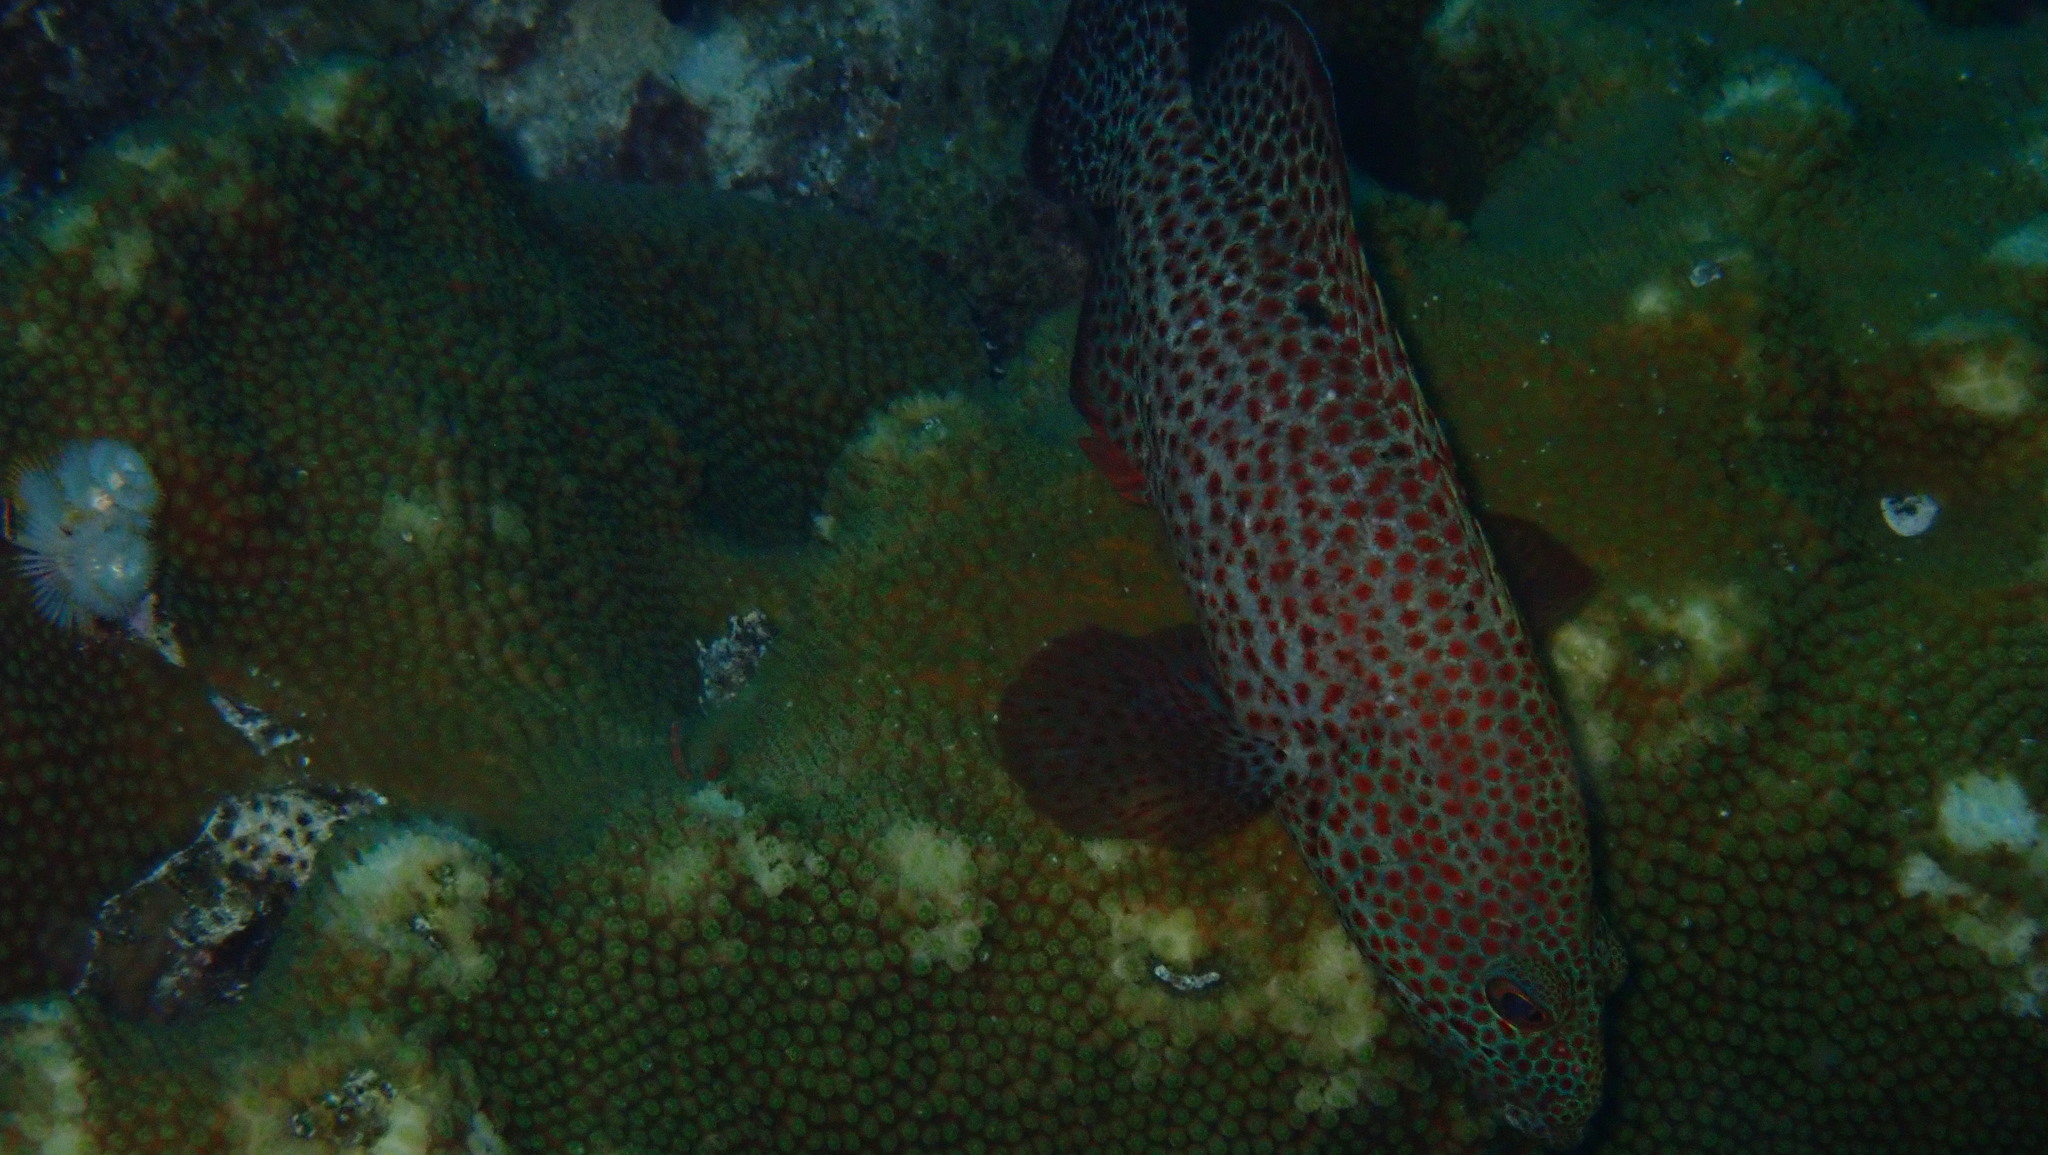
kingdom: Animalia
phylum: Chordata
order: Perciformes
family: Serranidae
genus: Cephalopholis
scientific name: Cephalopholis cruentata
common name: Graysby
